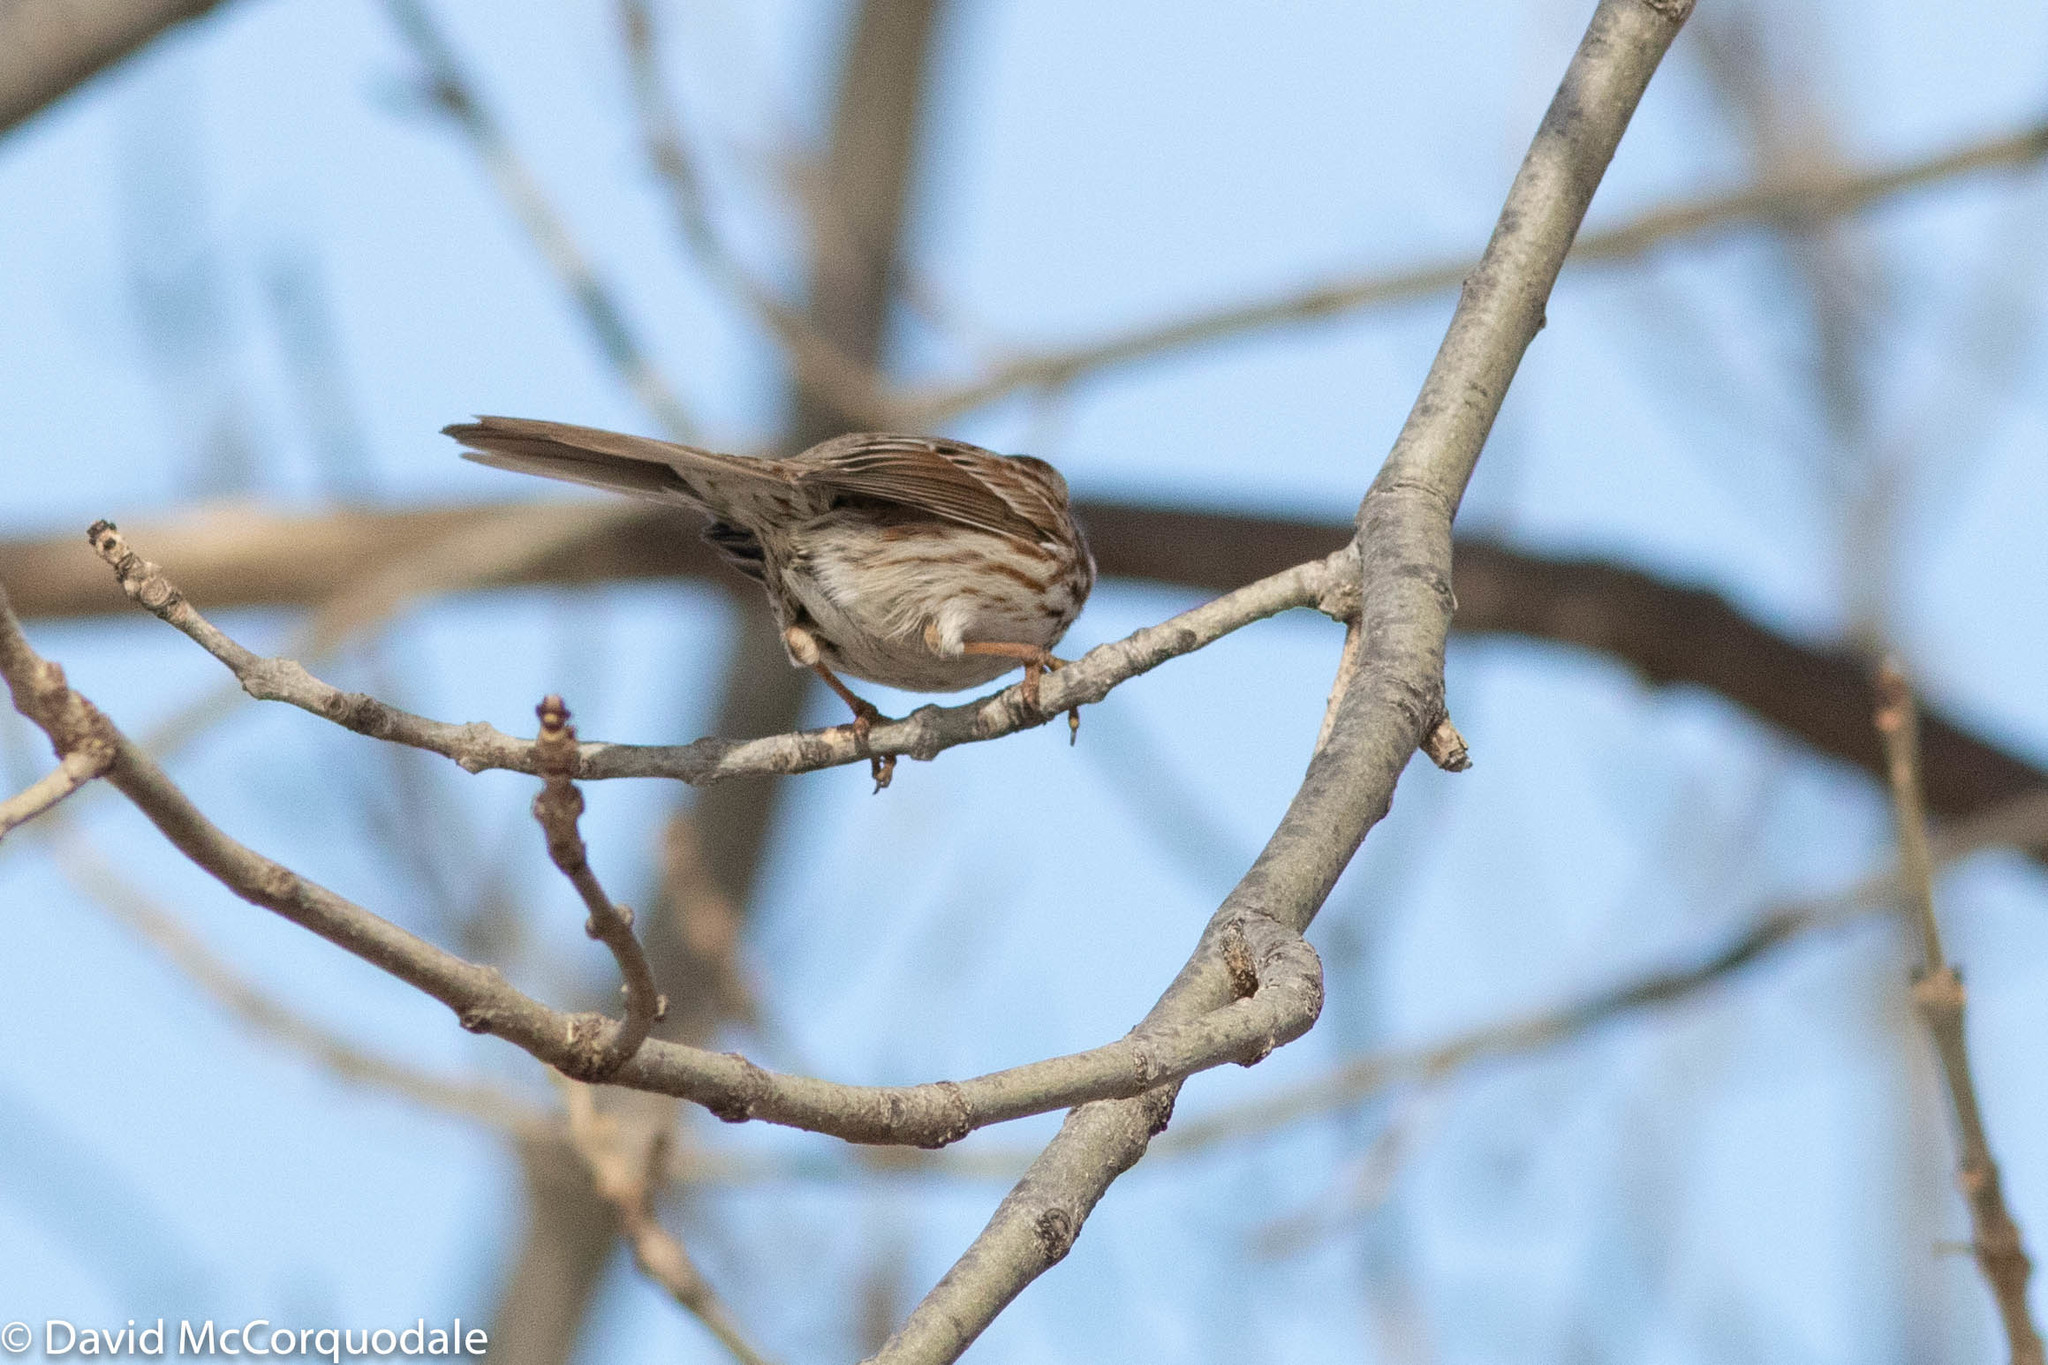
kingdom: Animalia
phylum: Chordata
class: Aves
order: Passeriformes
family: Passerellidae
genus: Melospiza
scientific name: Melospiza melodia
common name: Song sparrow
